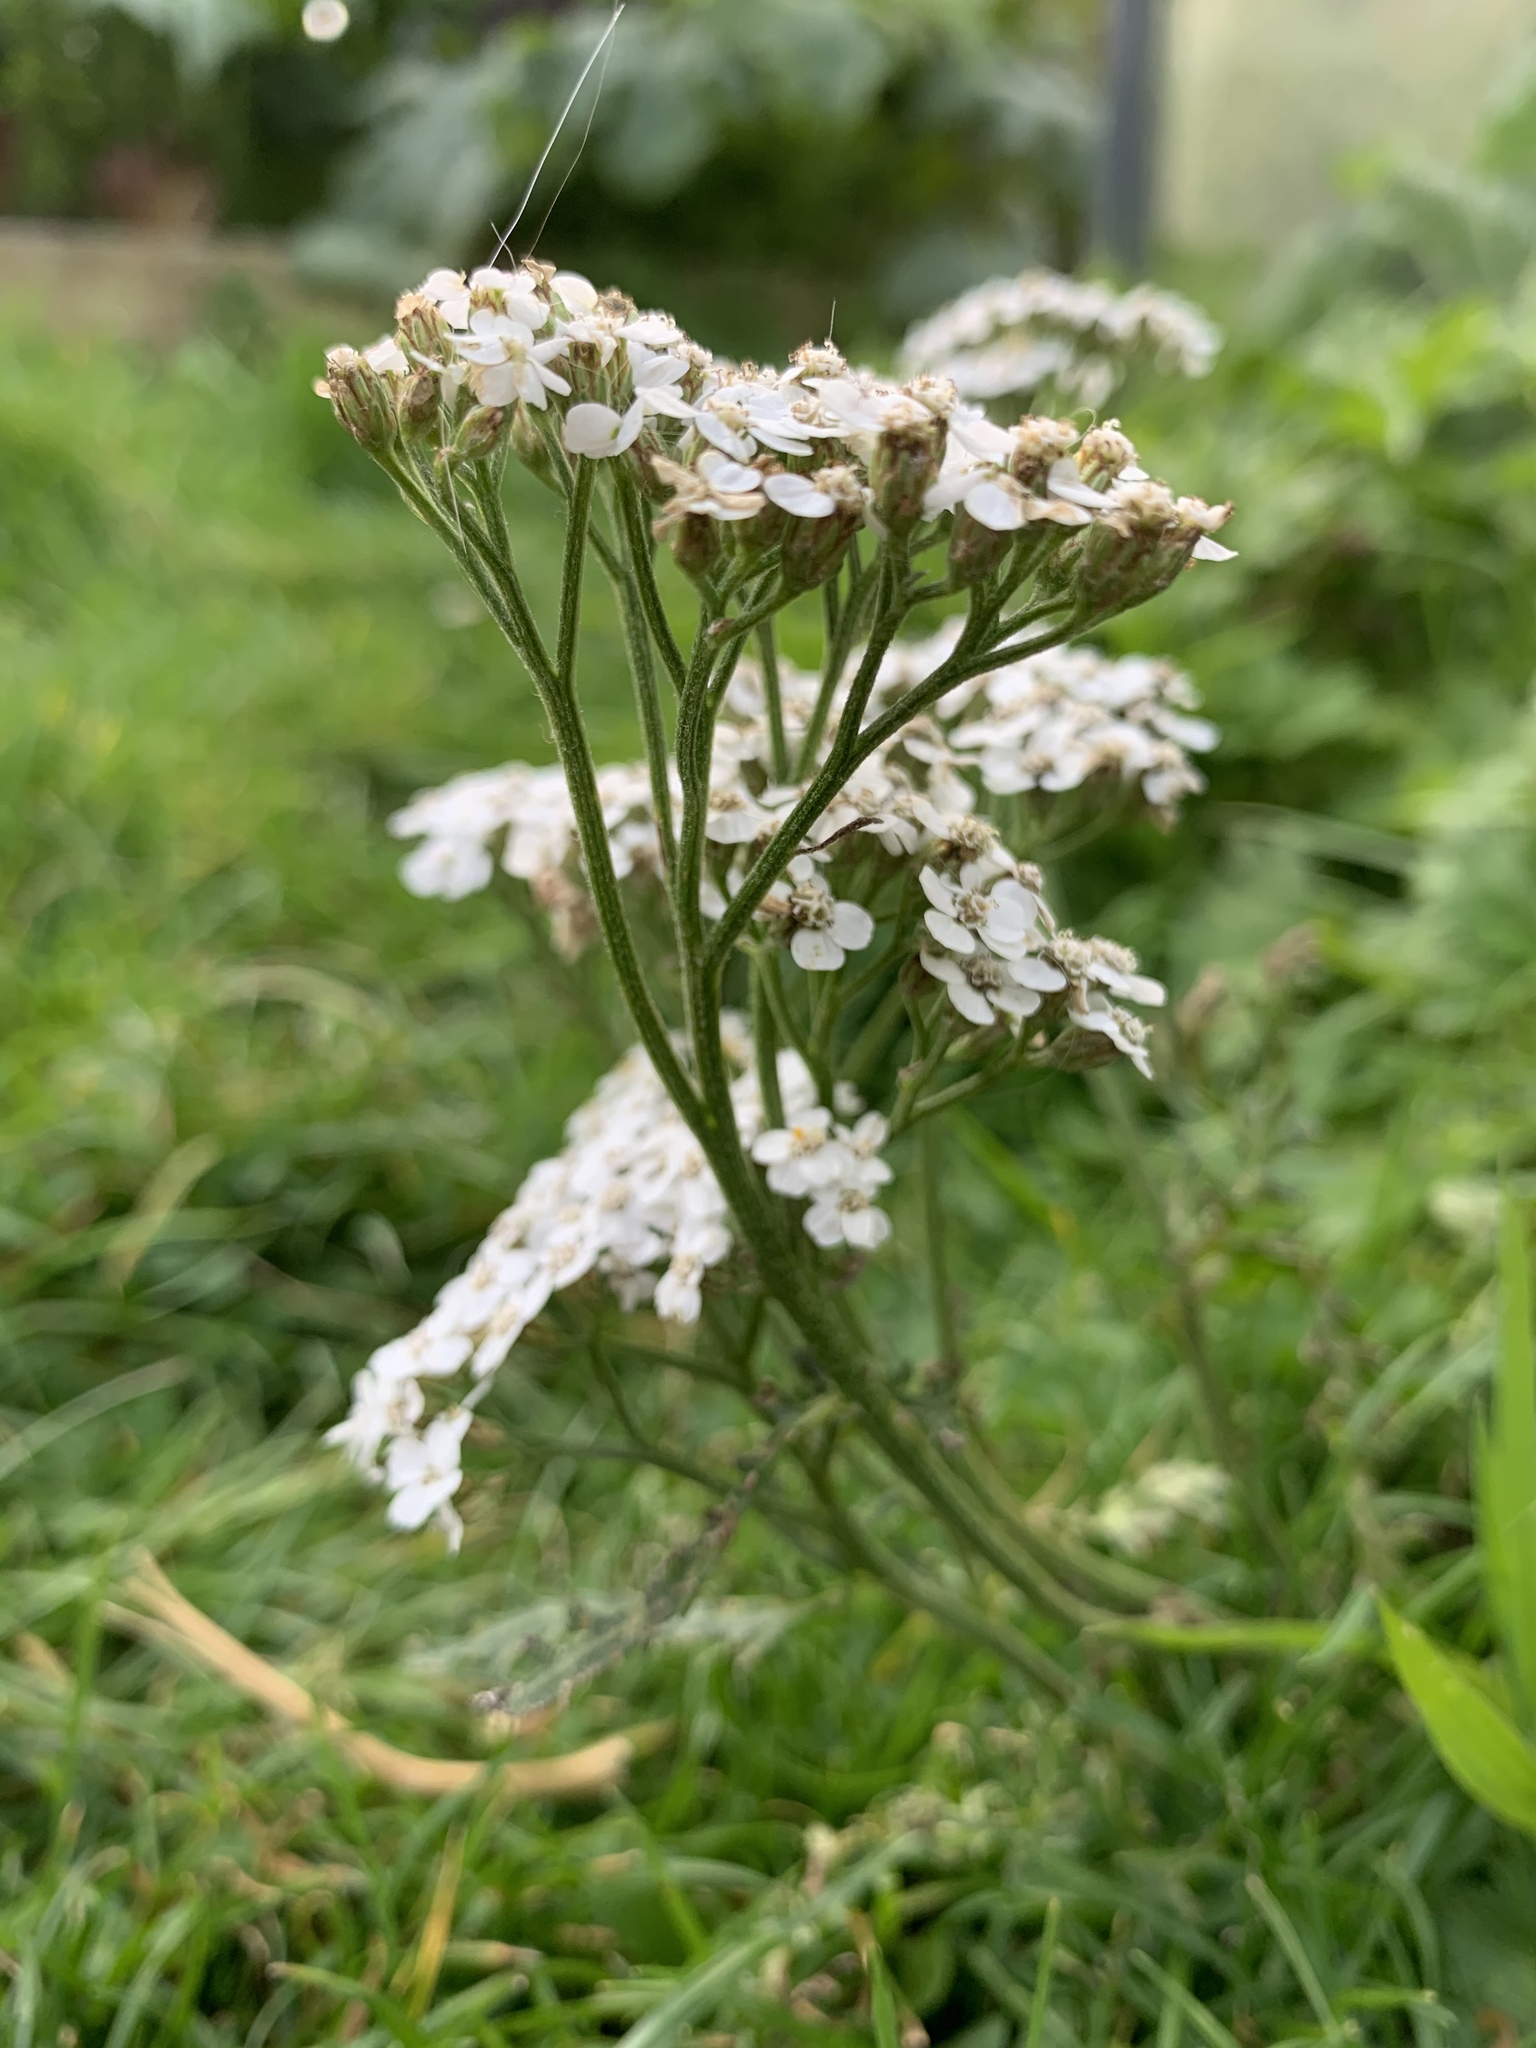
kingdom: Plantae
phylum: Tracheophyta
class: Magnoliopsida
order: Asterales
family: Asteraceae
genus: Achillea
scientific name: Achillea millefolium
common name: Yarrow
